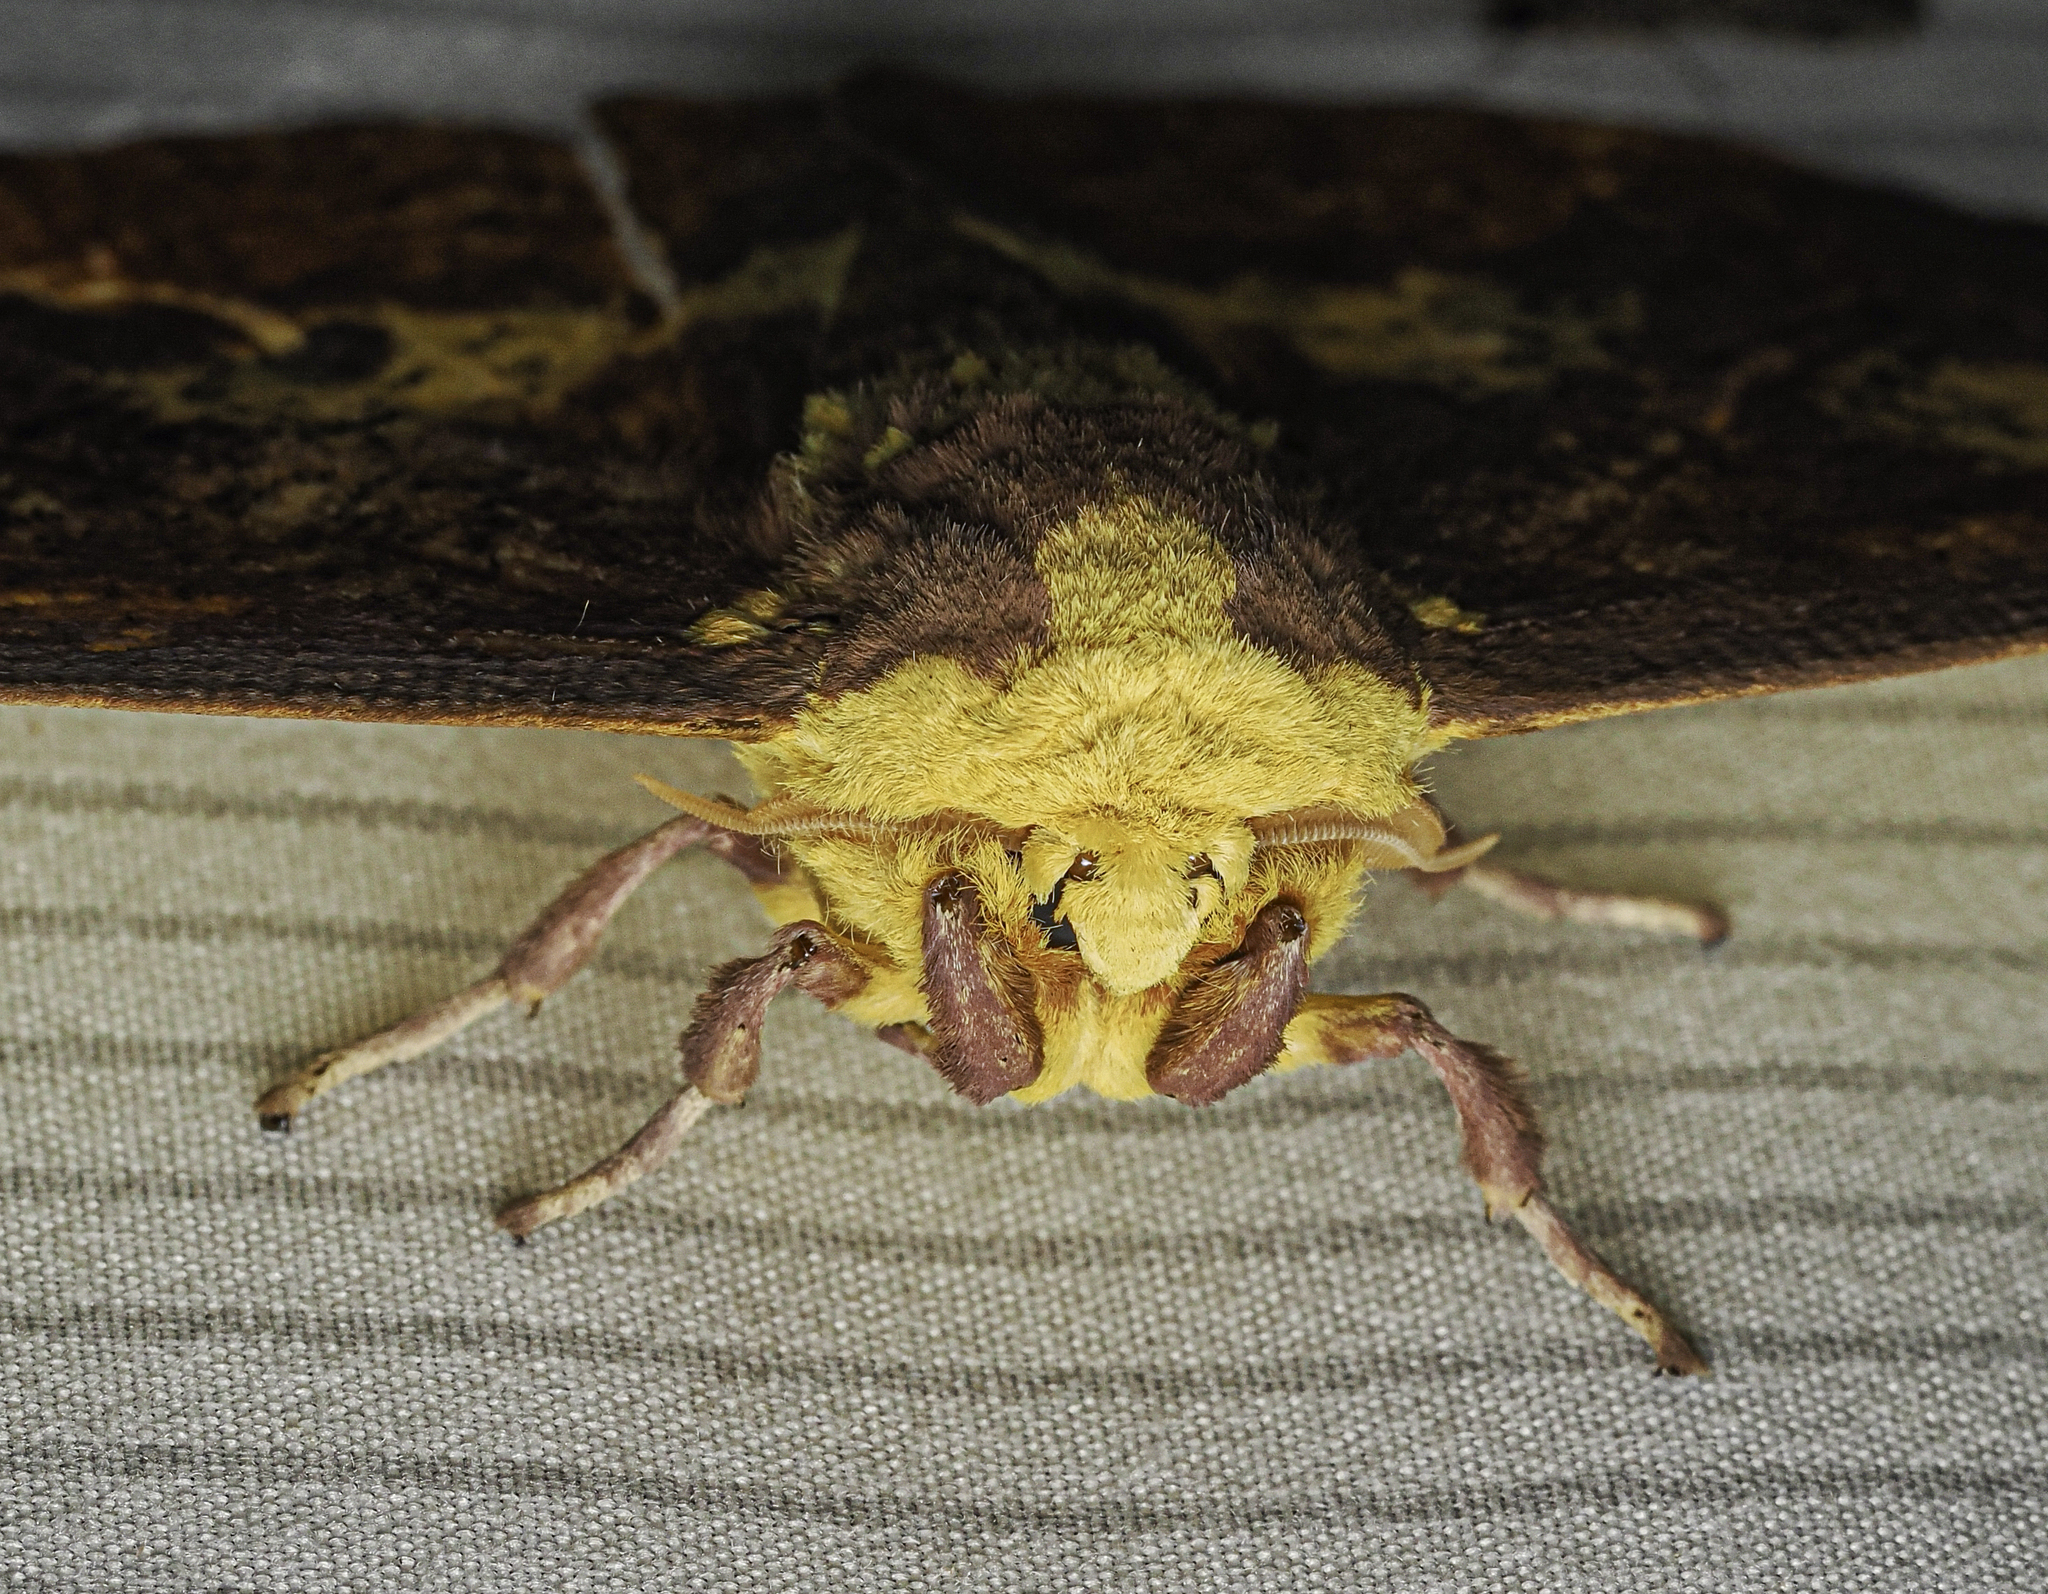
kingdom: Animalia
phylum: Arthropoda
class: Insecta
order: Lepidoptera
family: Saturniidae
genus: Eacles
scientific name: Eacles imperialis
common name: Imperial moth
